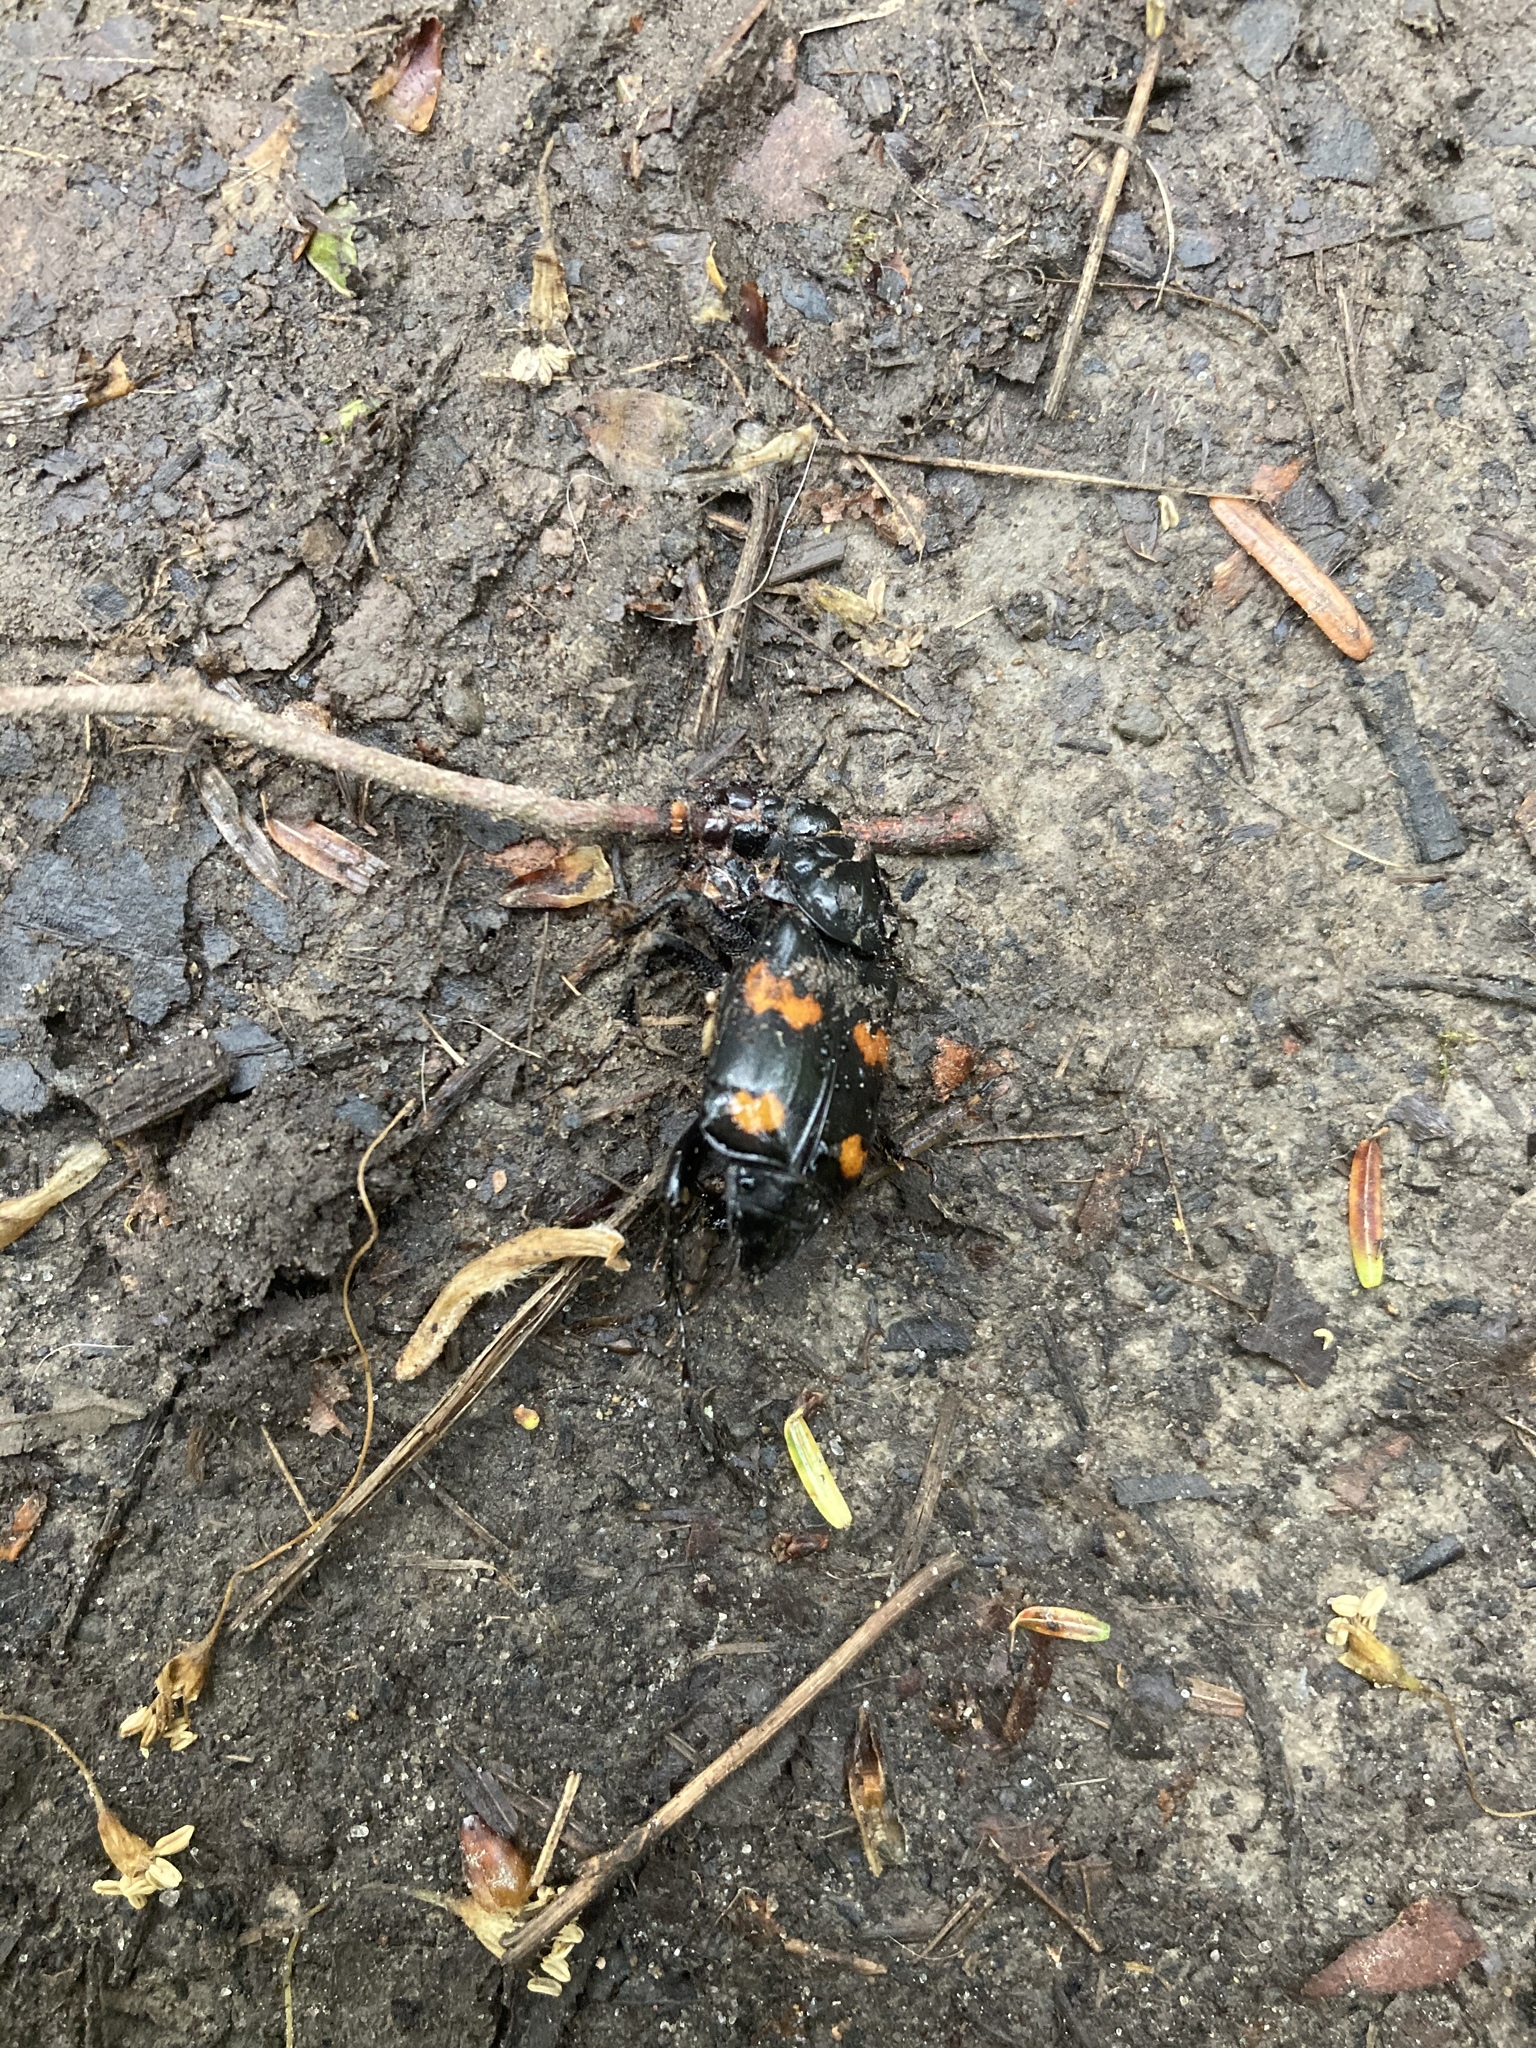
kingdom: Animalia
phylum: Arthropoda
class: Insecta
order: Coleoptera
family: Staphylinidae
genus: Nicrophorus
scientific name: Nicrophorus orbicollis
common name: Roundneck sexton beetle
